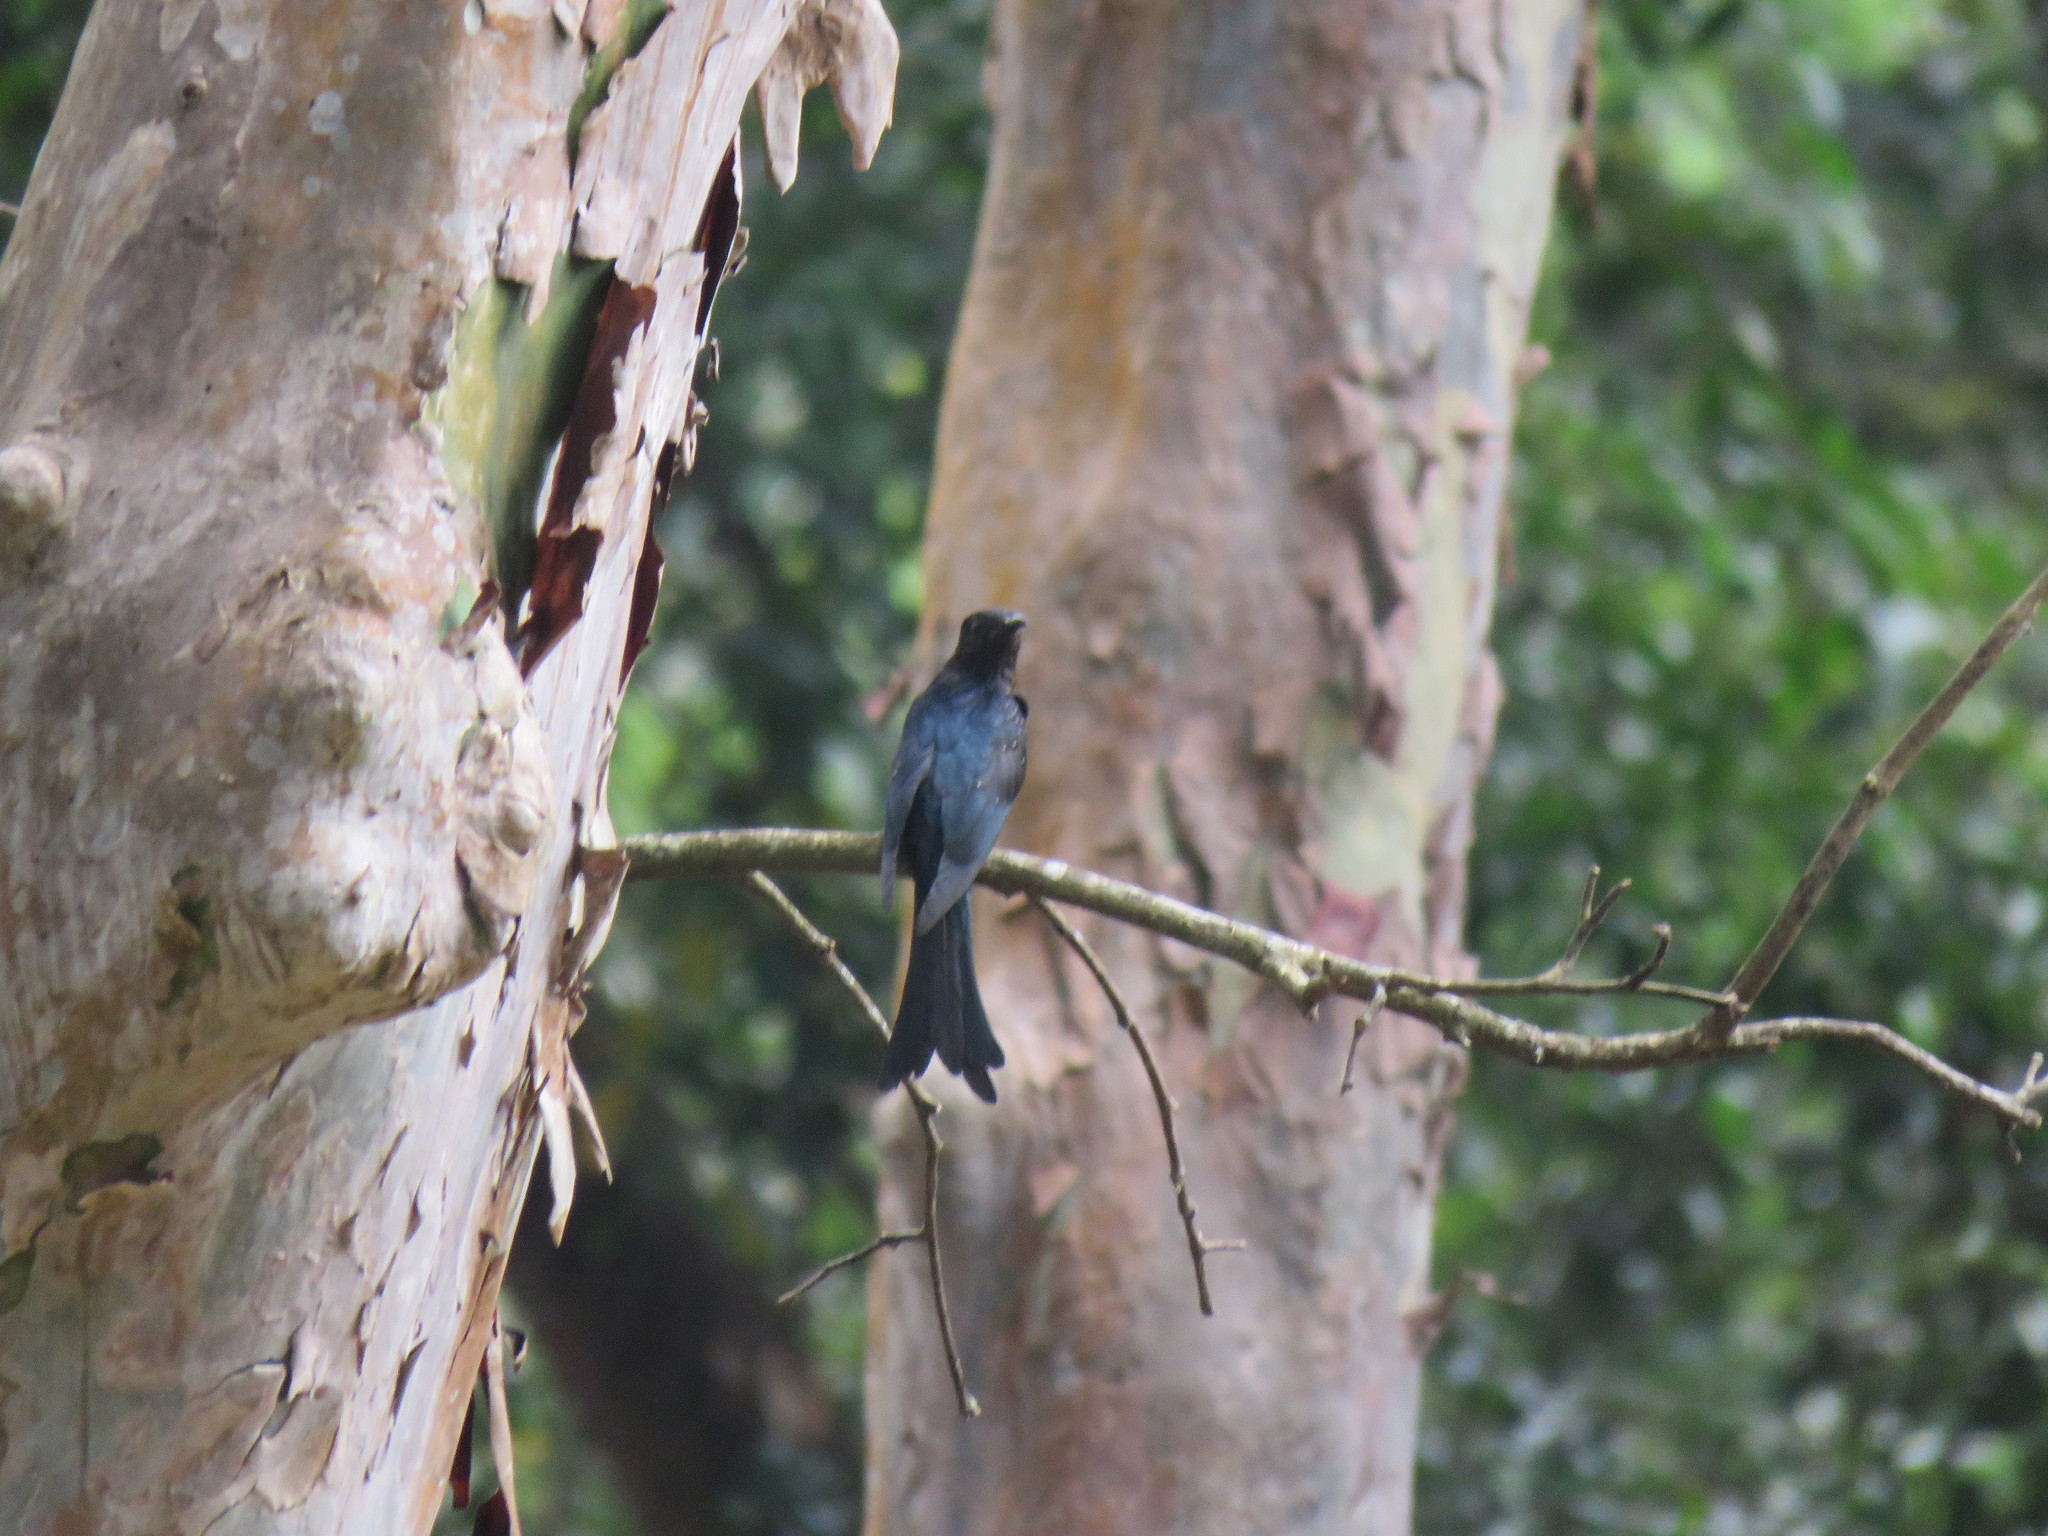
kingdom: Animalia
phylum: Chordata
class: Aves
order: Cuculiformes
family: Cuculidae
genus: Surniculus
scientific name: Surniculus lugubris
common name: Square-tailed drongo-cuckoo
